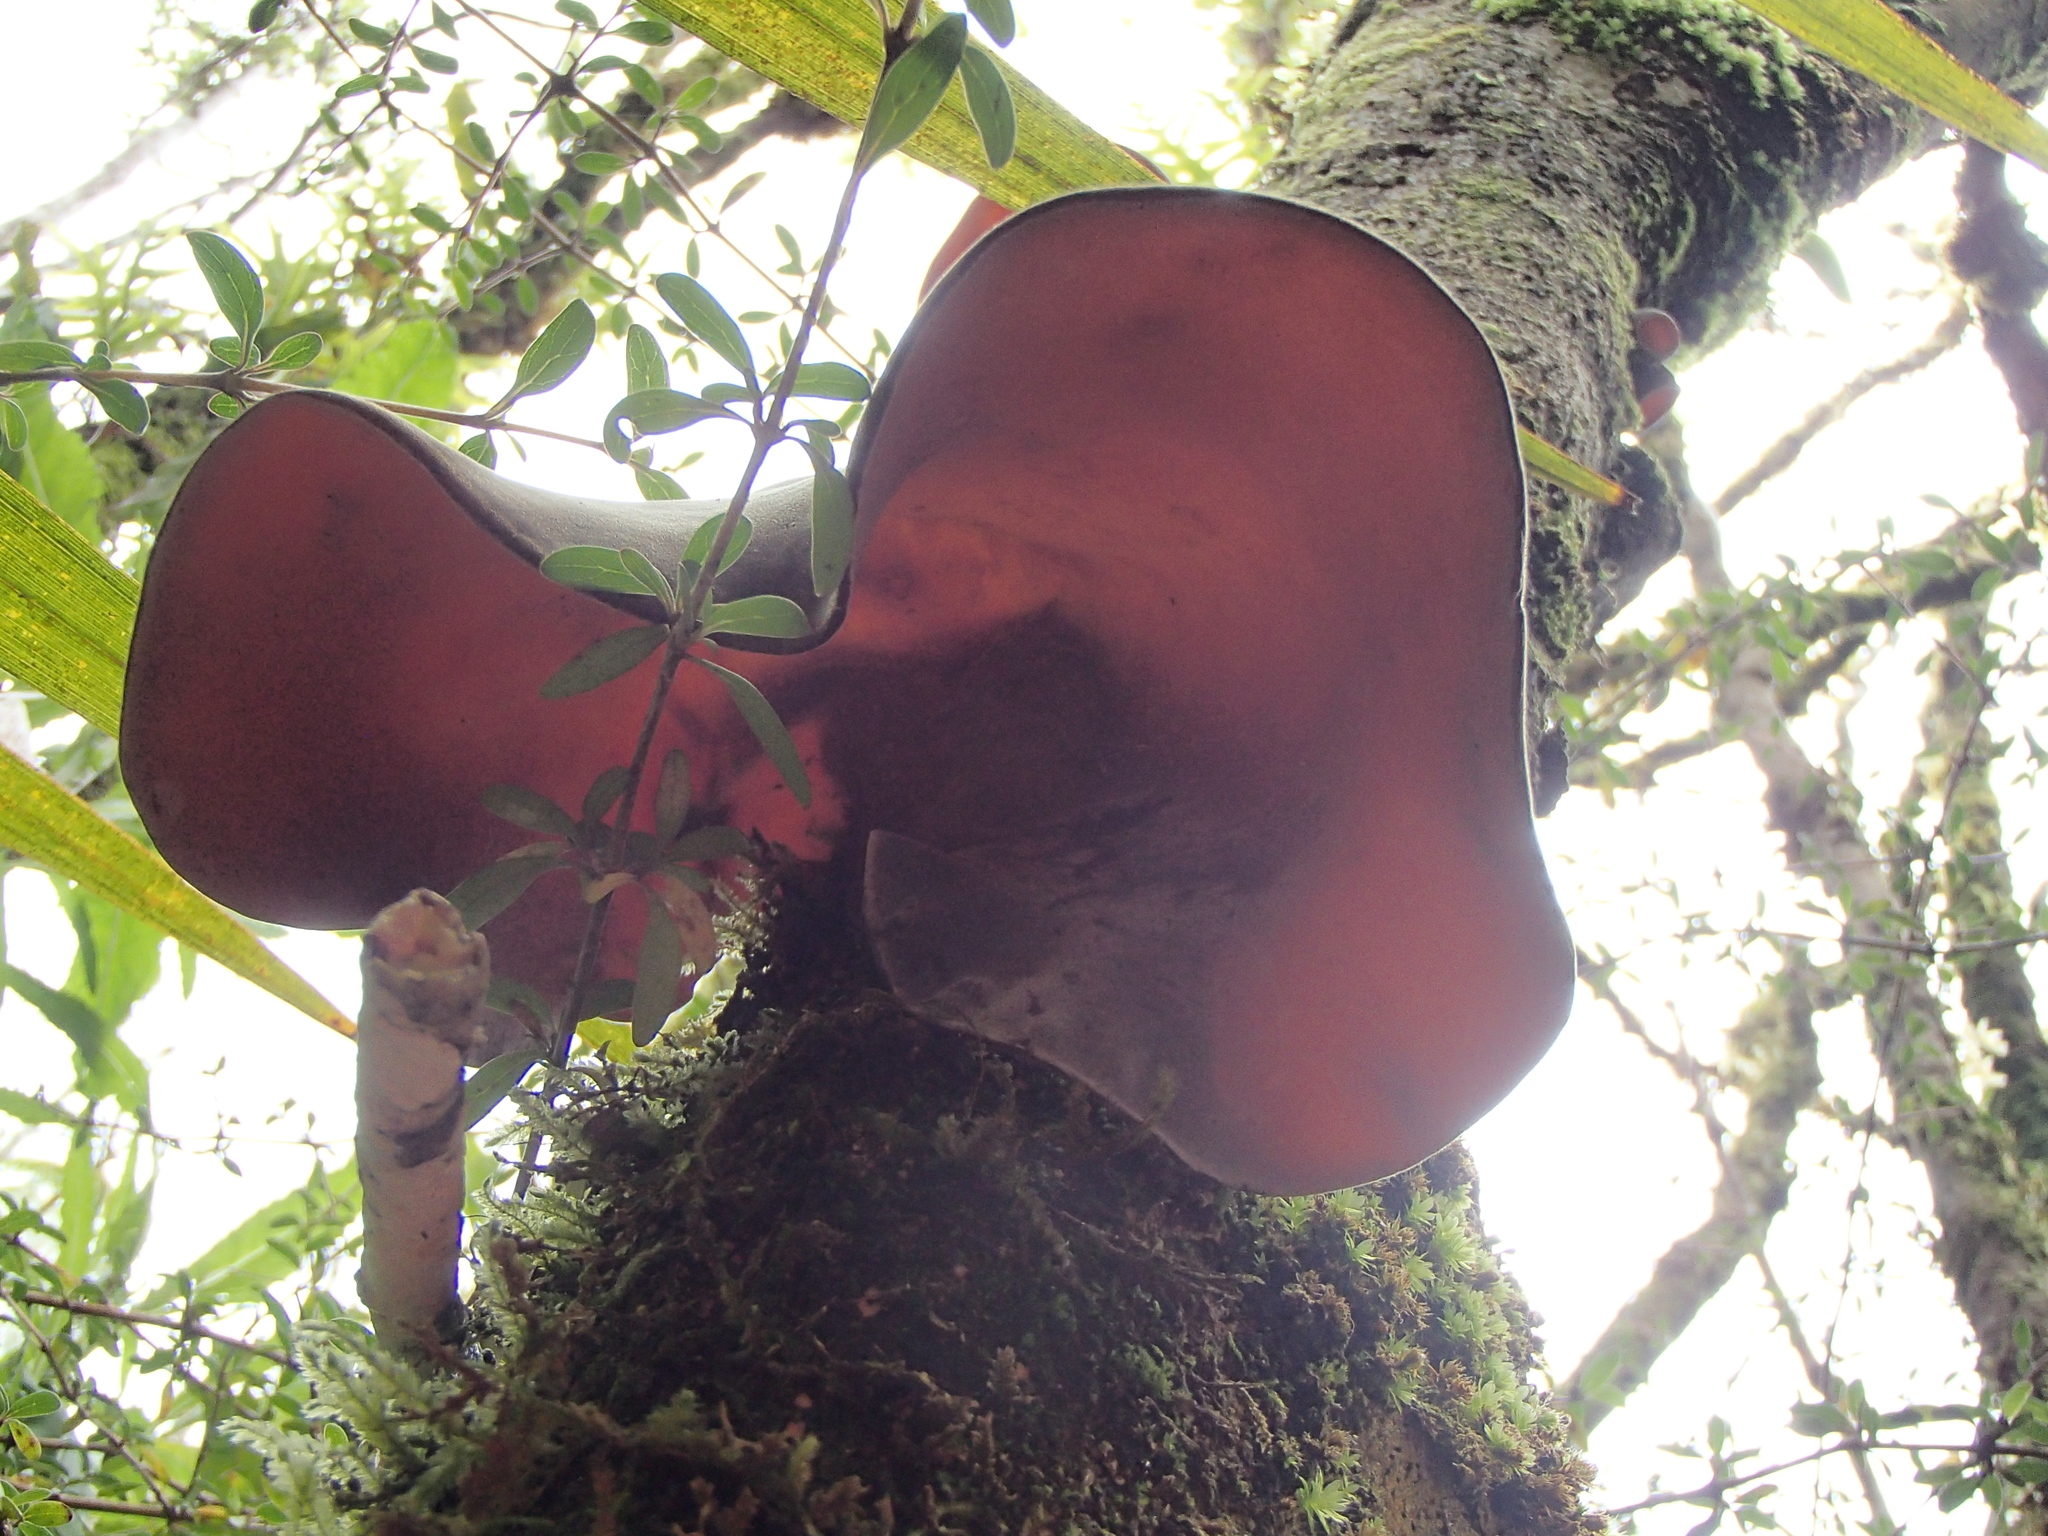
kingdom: Fungi
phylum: Basidiomycota
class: Agaricomycetes
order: Auriculariales
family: Auriculariaceae
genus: Auricularia
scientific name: Auricularia cornea
